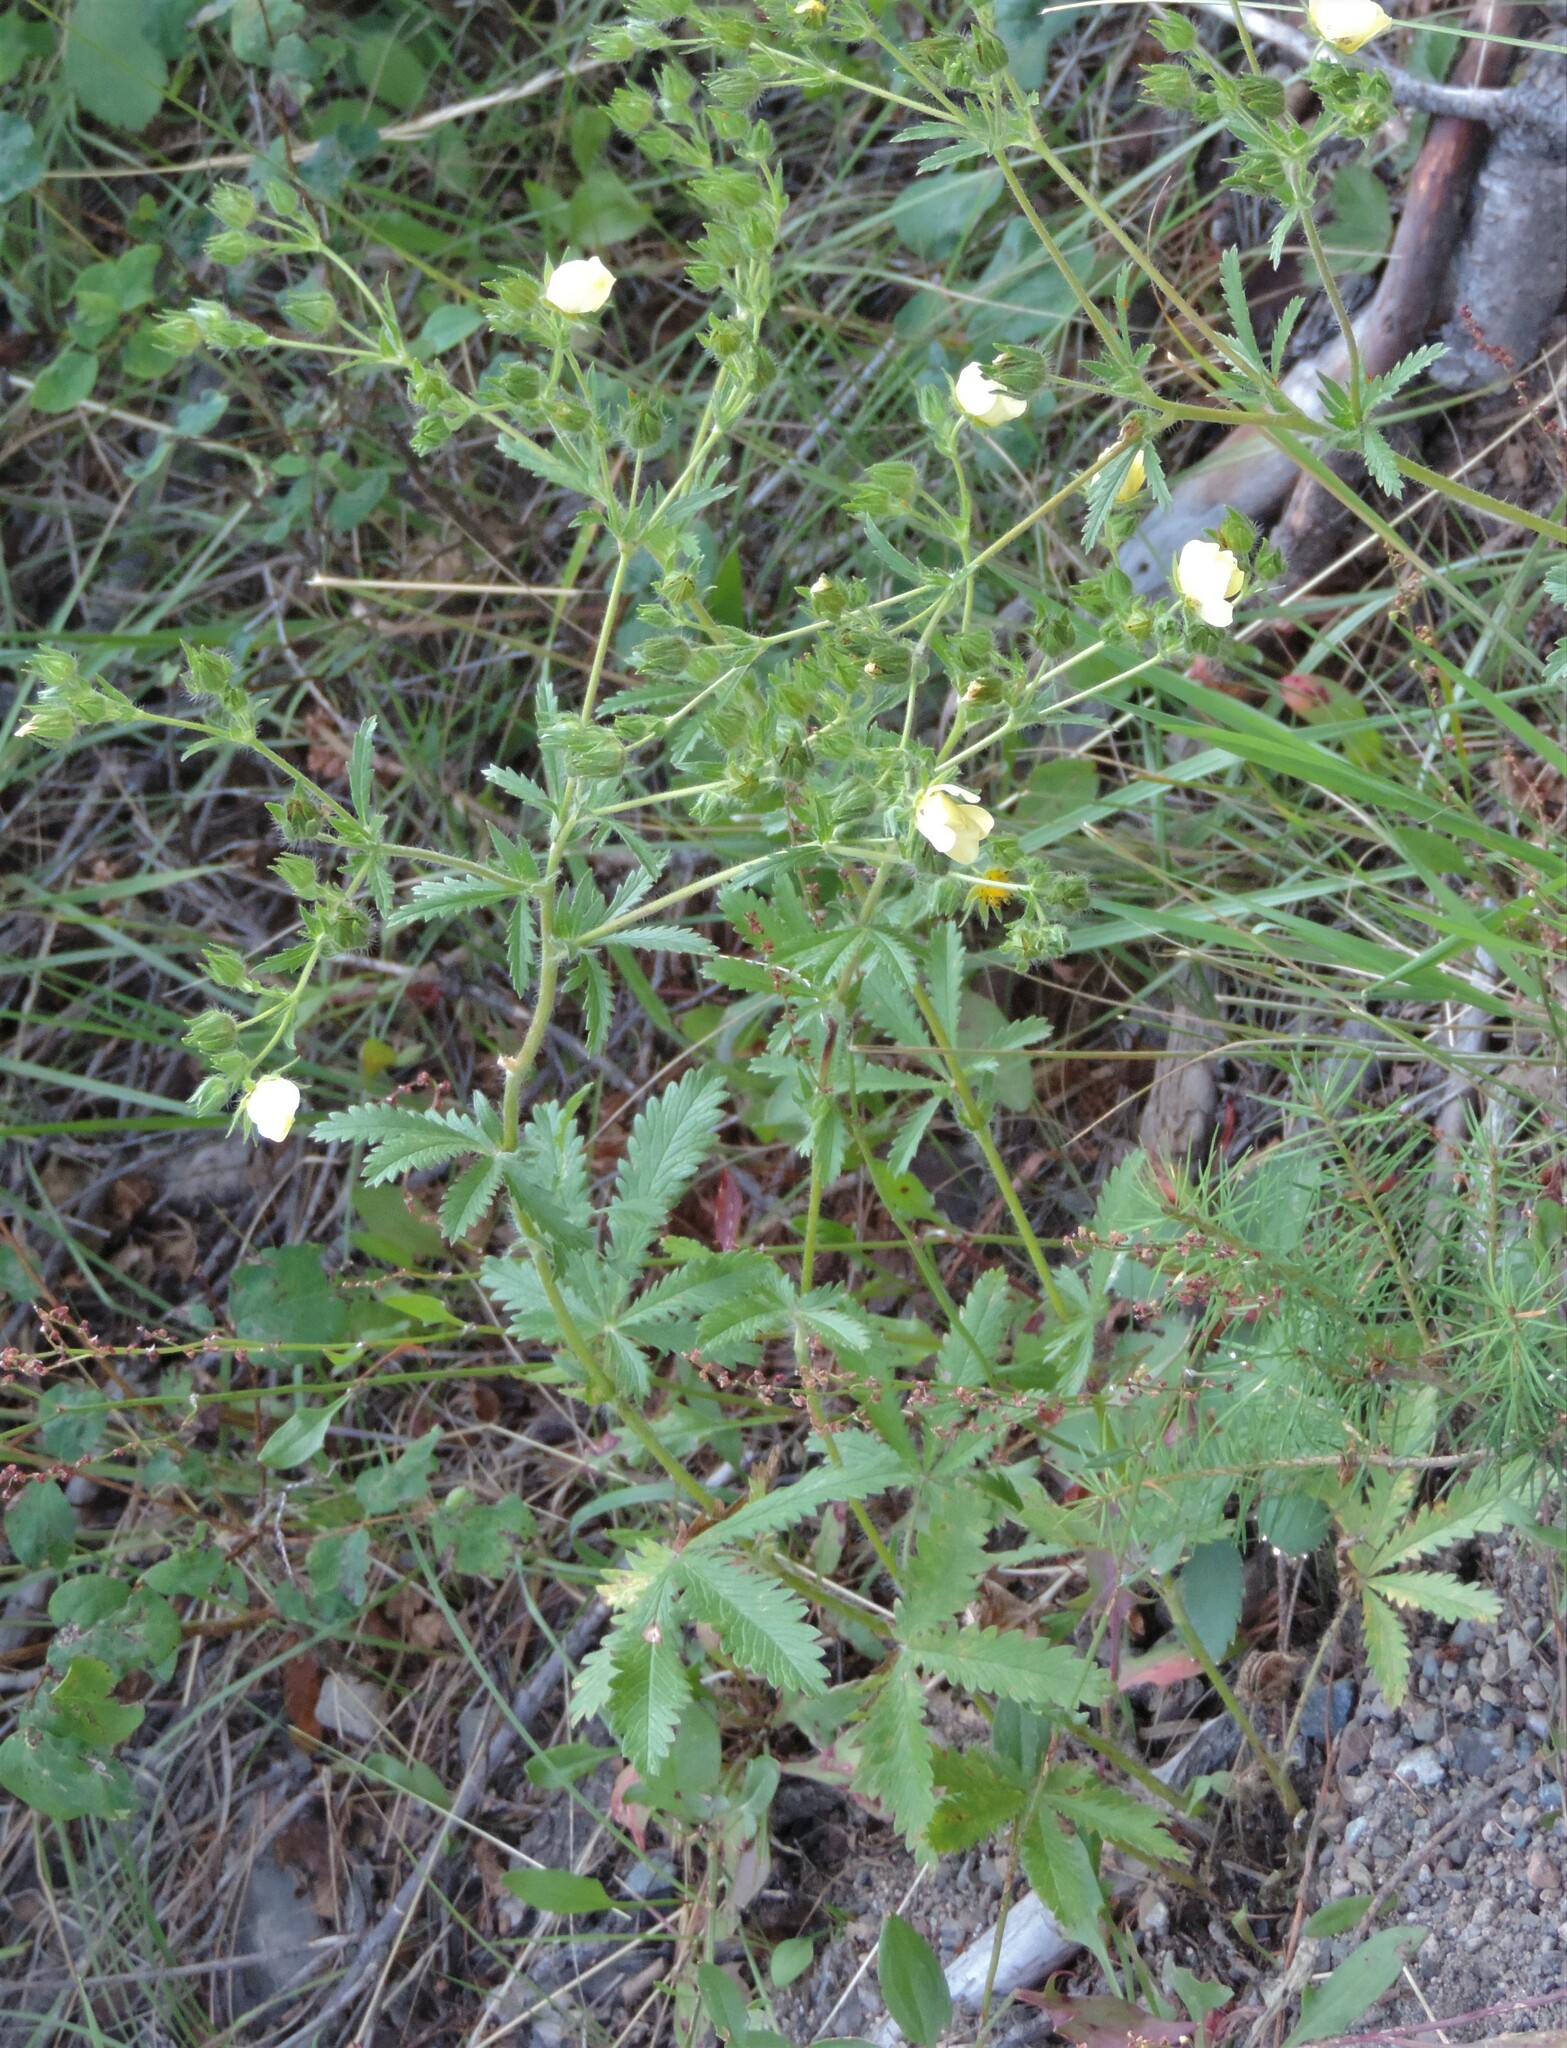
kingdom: Plantae
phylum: Tracheophyta
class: Magnoliopsida
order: Rosales
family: Rosaceae
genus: Potentilla
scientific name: Potentilla recta
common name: Sulphur cinquefoil
